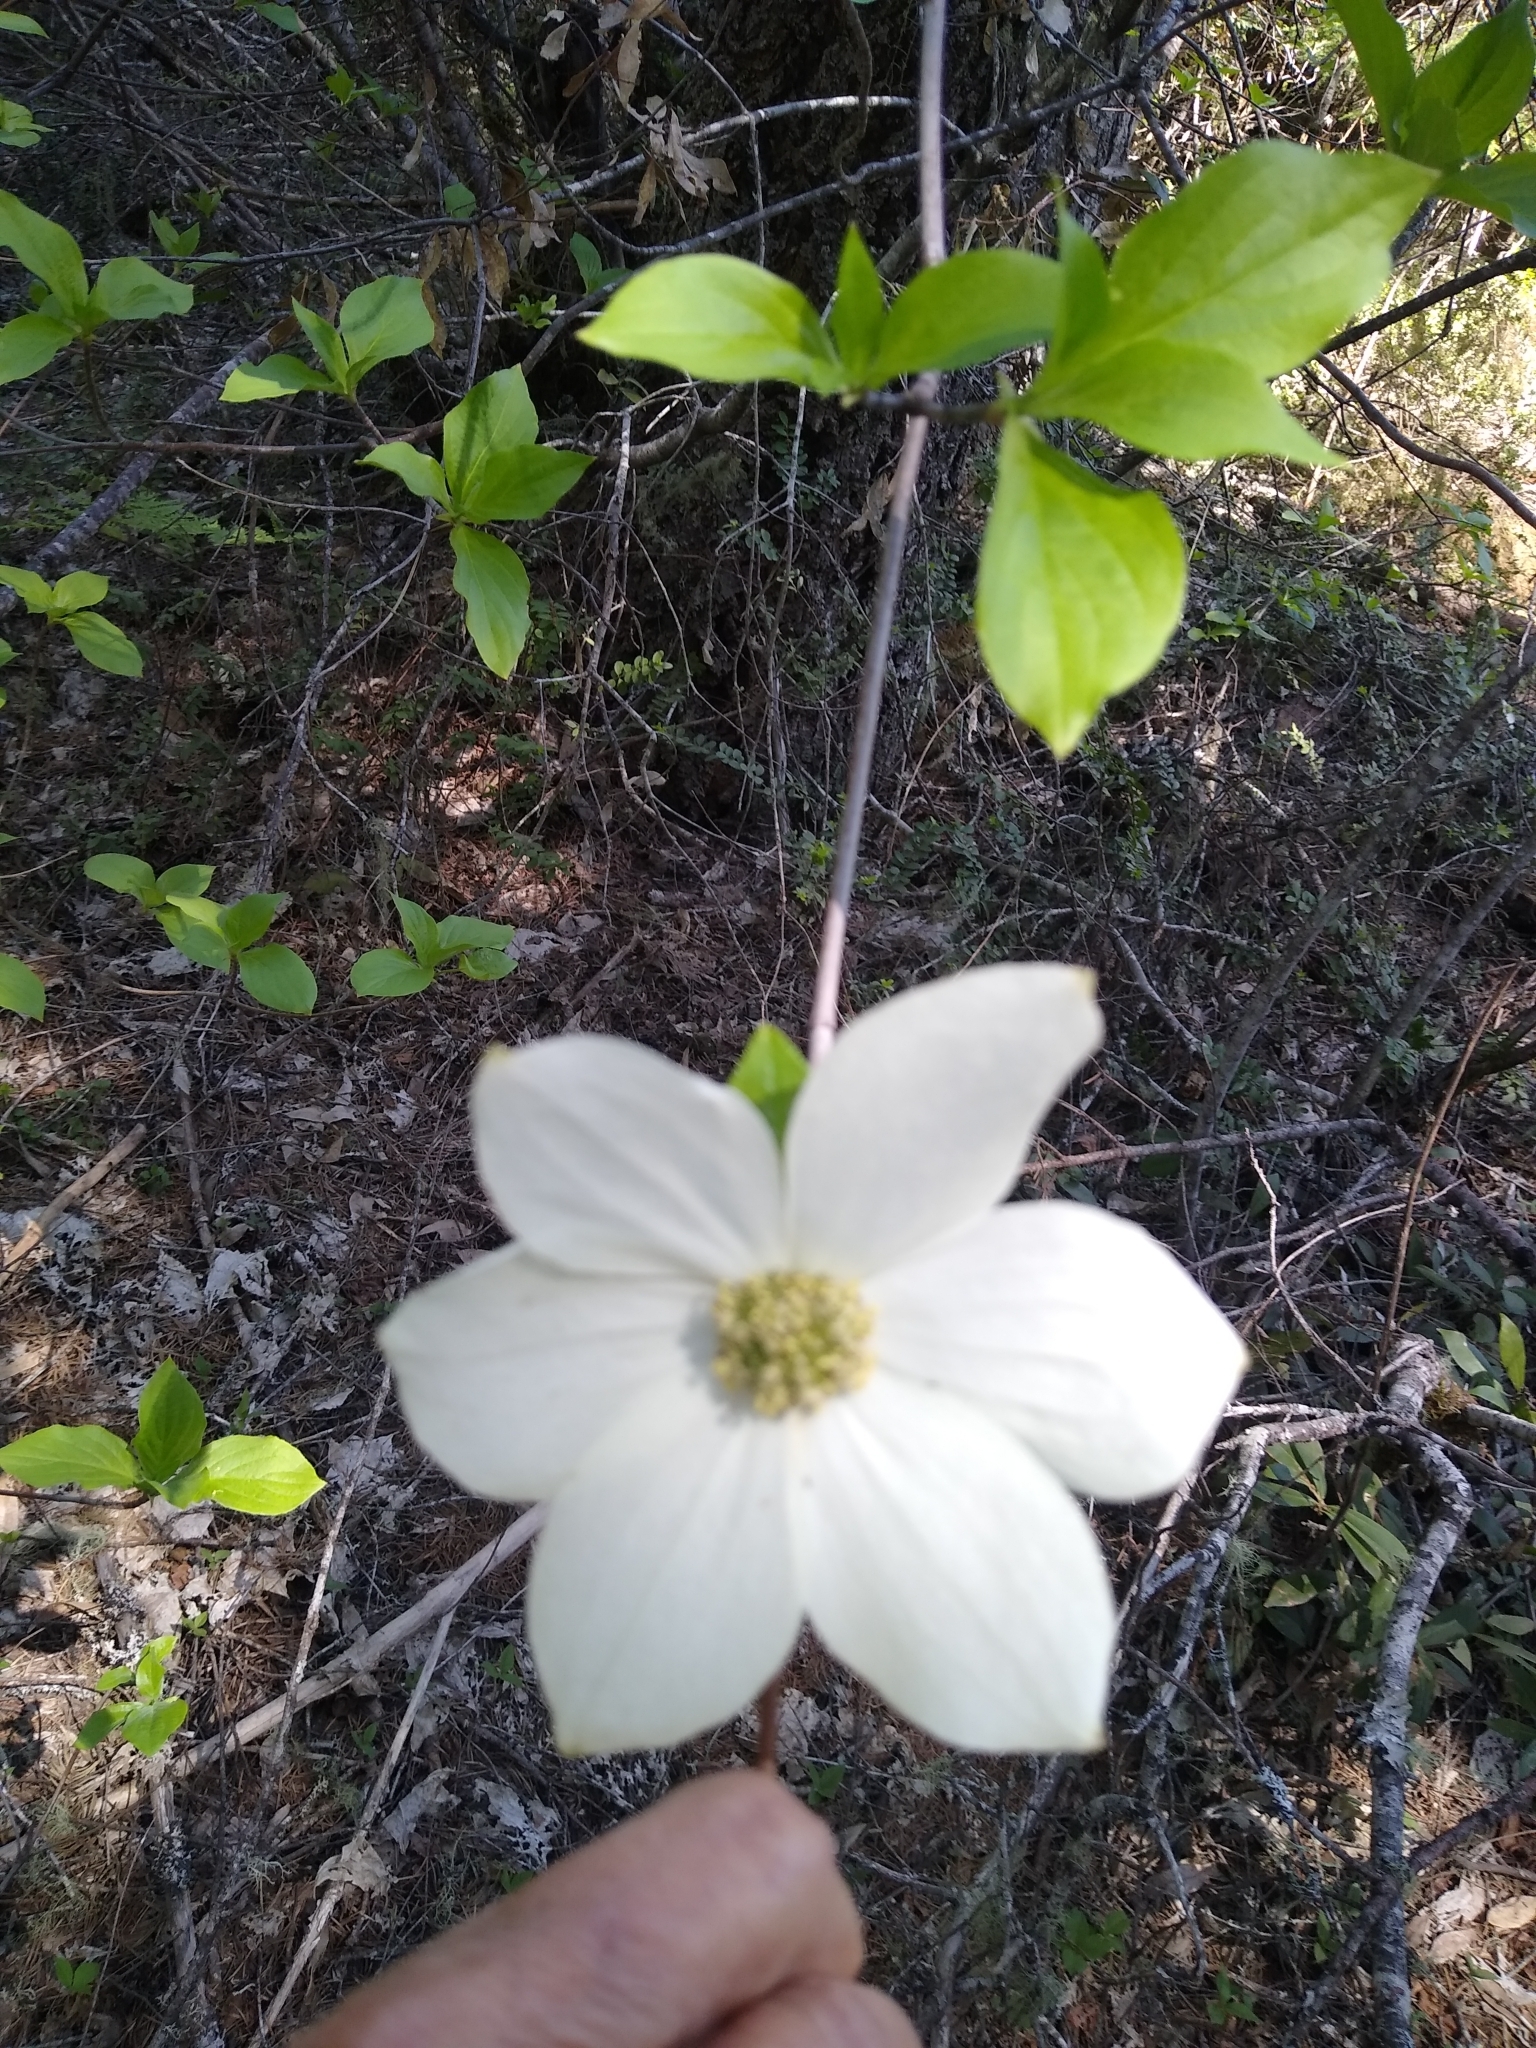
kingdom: Plantae
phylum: Tracheophyta
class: Magnoliopsida
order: Cornales
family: Cornaceae
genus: Cornus
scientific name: Cornus nuttallii
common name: Pacific dogwood
